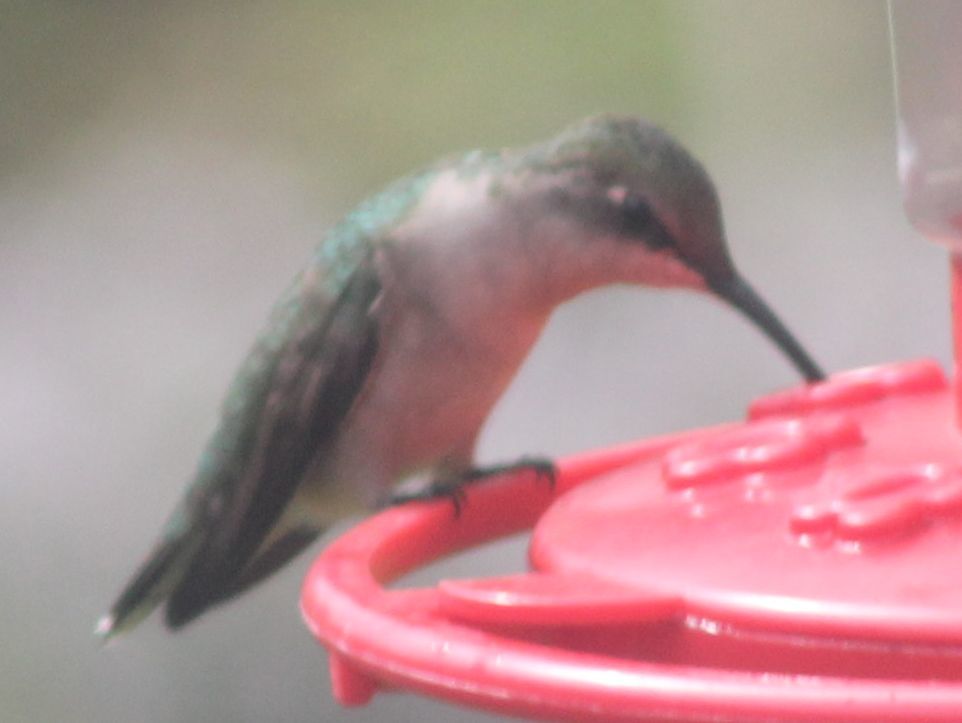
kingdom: Animalia
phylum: Chordata
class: Aves
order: Apodiformes
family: Trochilidae
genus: Archilochus
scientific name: Archilochus colubris
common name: Ruby-throated hummingbird
